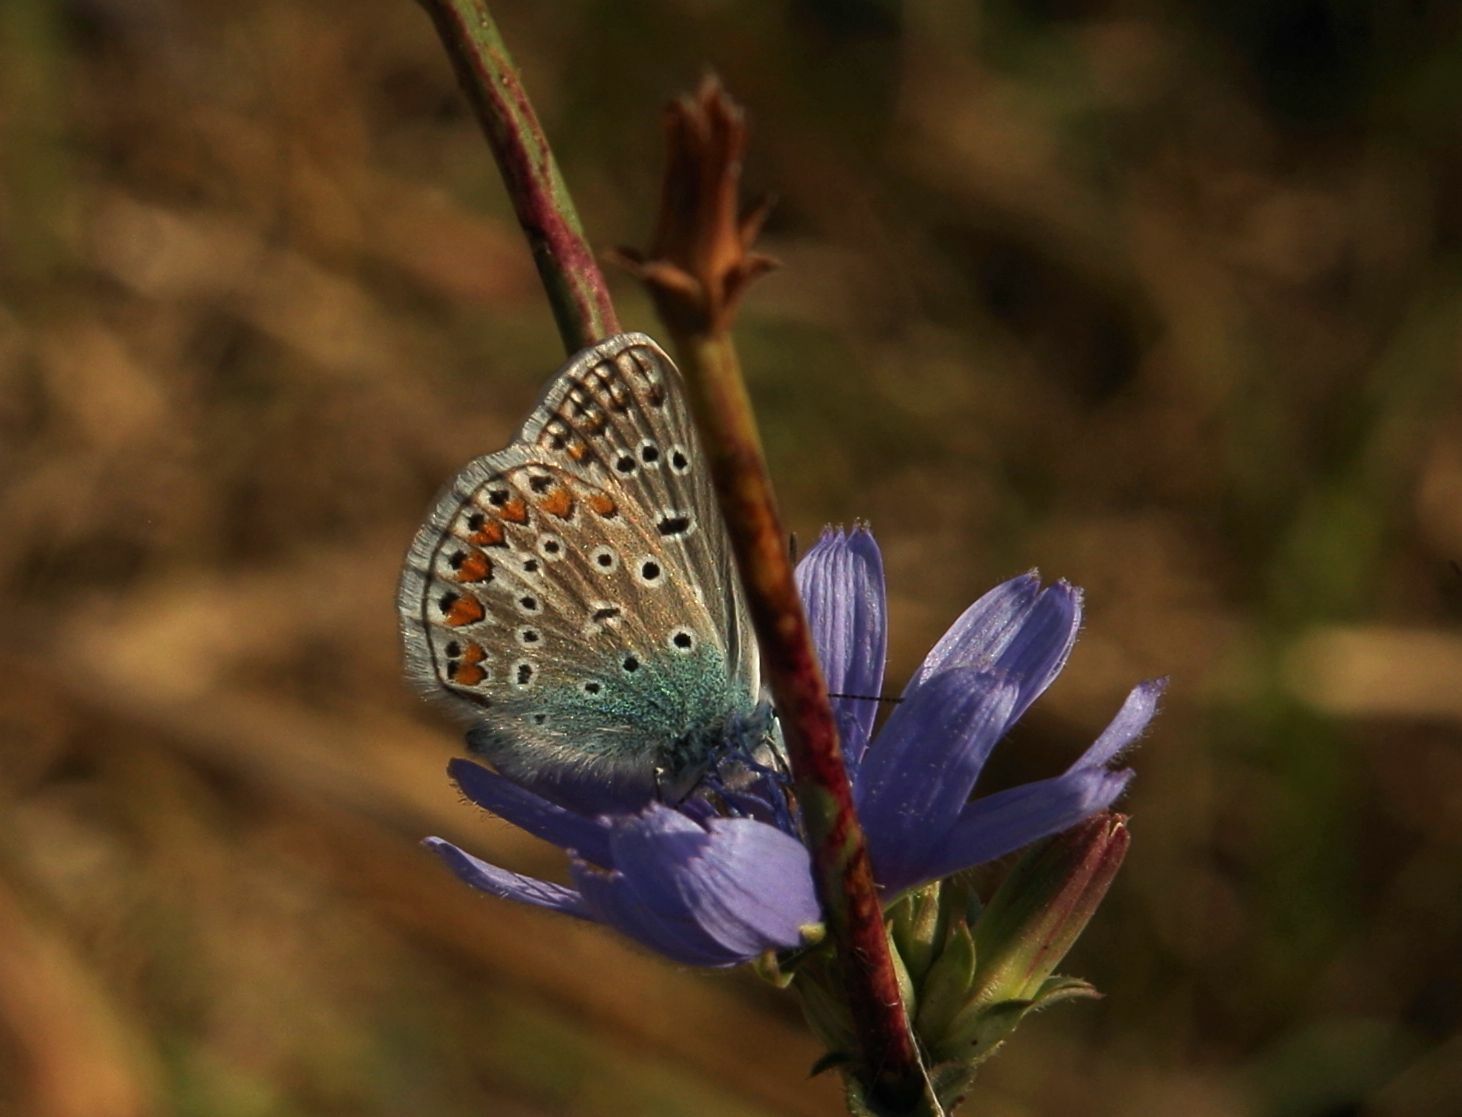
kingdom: Animalia
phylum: Arthropoda
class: Insecta
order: Lepidoptera
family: Lycaenidae
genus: Polyommatus
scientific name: Polyommatus icarus
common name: Common blue
